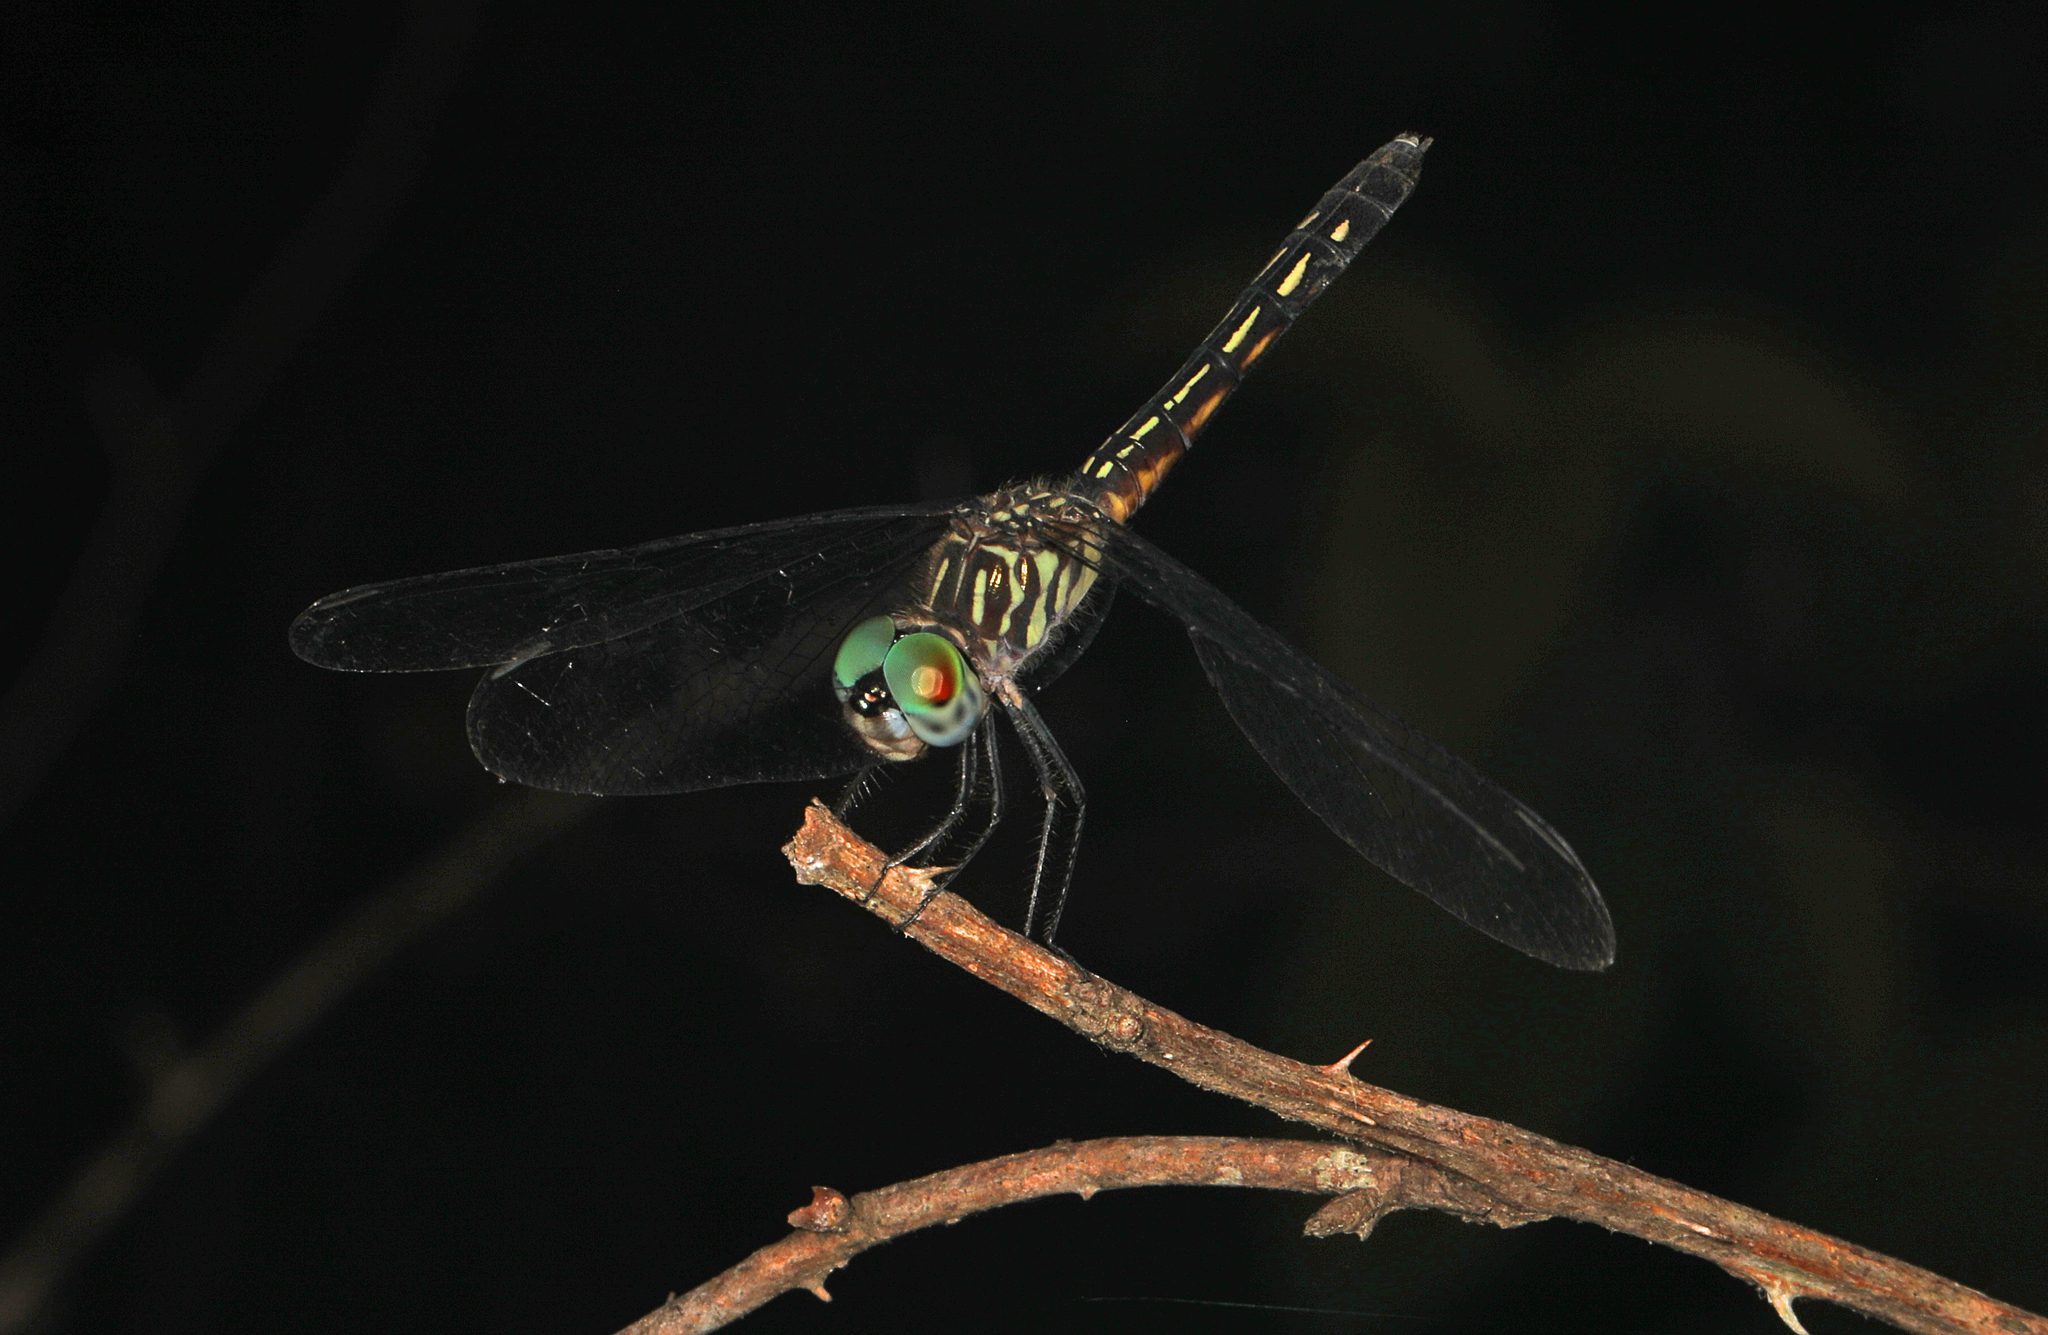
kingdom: Animalia
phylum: Arthropoda
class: Insecta
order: Odonata
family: Libellulidae
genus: Pachydiplax
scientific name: Pachydiplax longipennis
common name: Blue dasher
